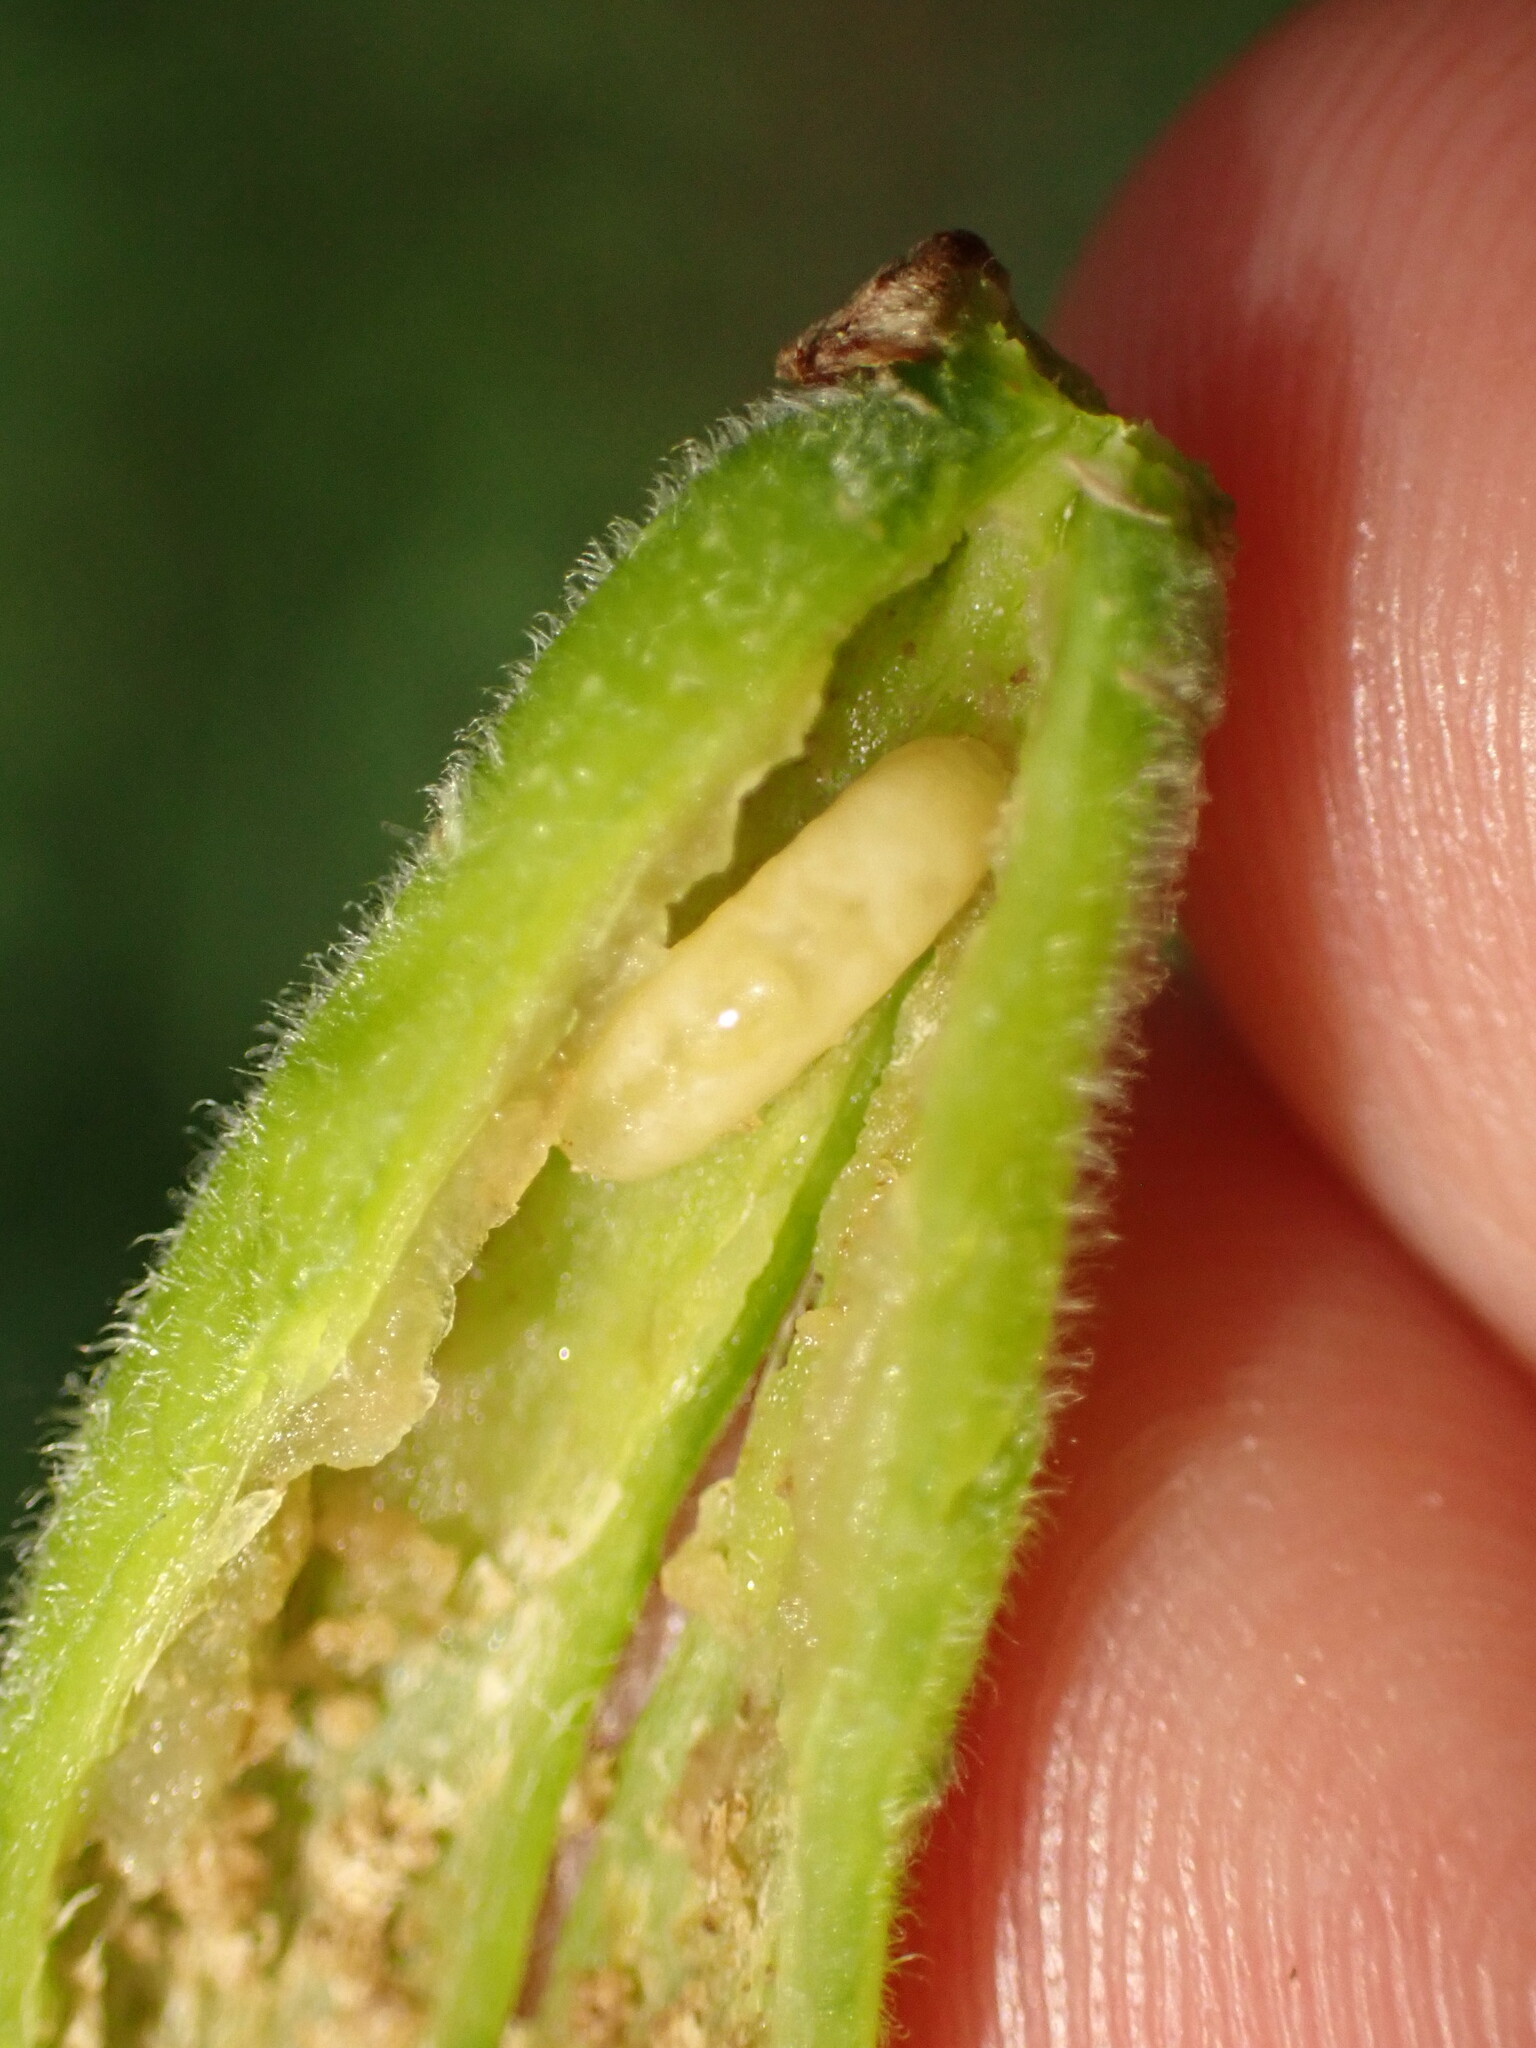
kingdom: Animalia
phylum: Arthropoda
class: Insecta
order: Diptera
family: Agromyzidae
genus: Agromyza
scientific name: Agromyza deserta
